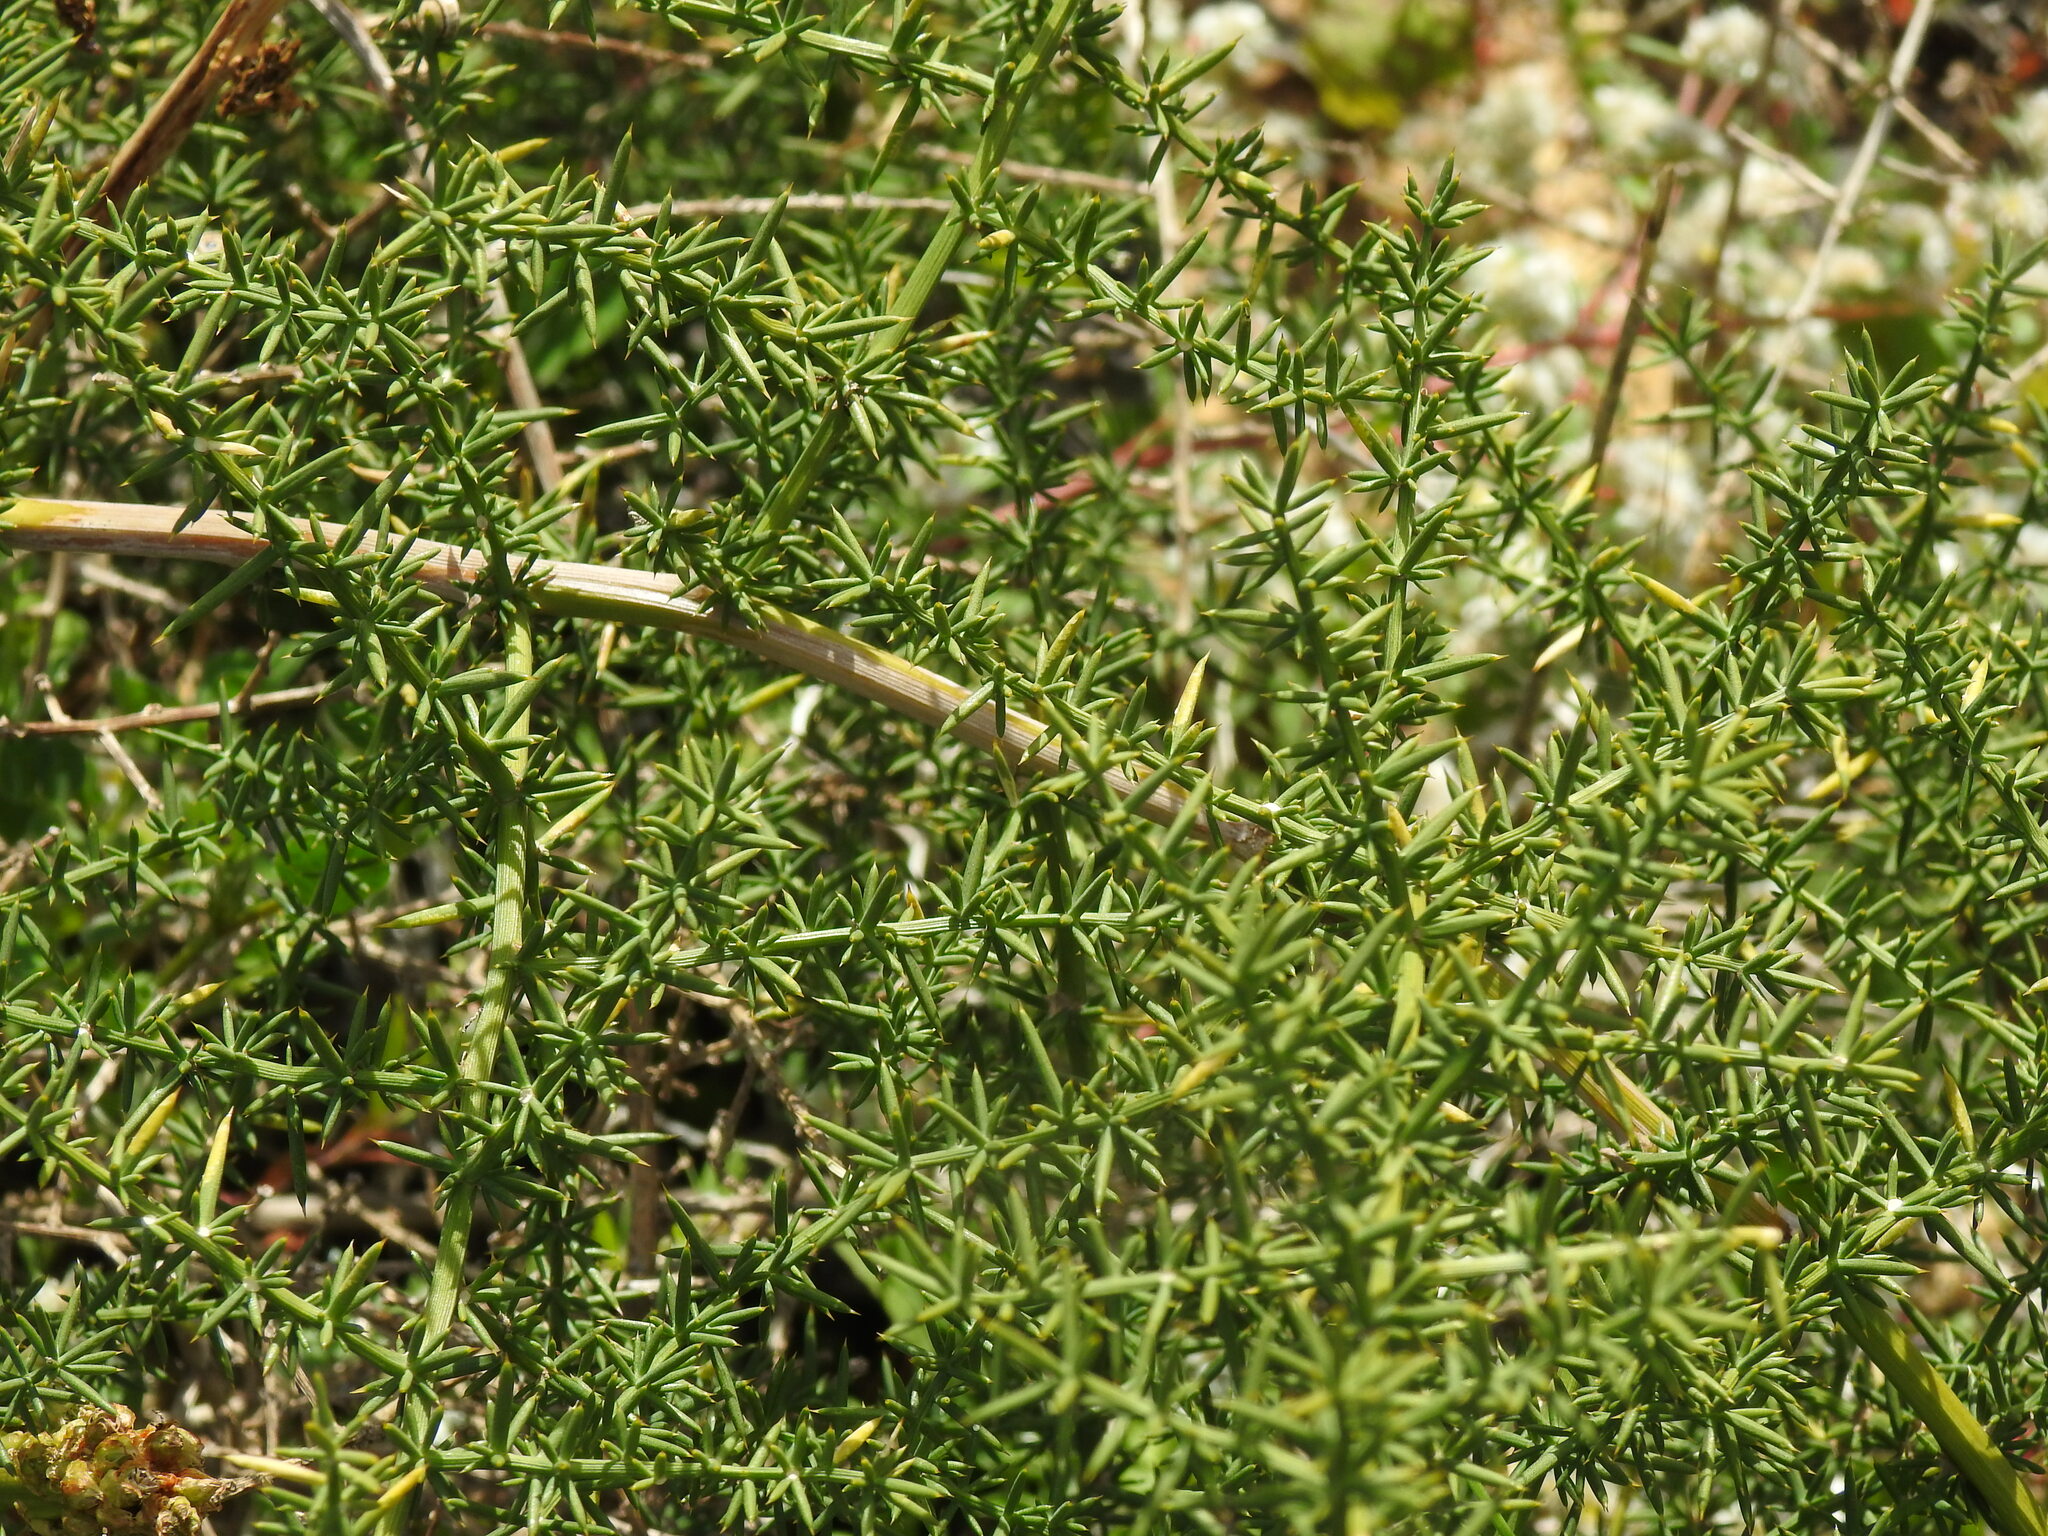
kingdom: Plantae
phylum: Tracheophyta
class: Liliopsida
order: Asparagales
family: Asparagaceae
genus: Asparagus
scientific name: Asparagus aphyllus
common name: Mediterranean asparagus
